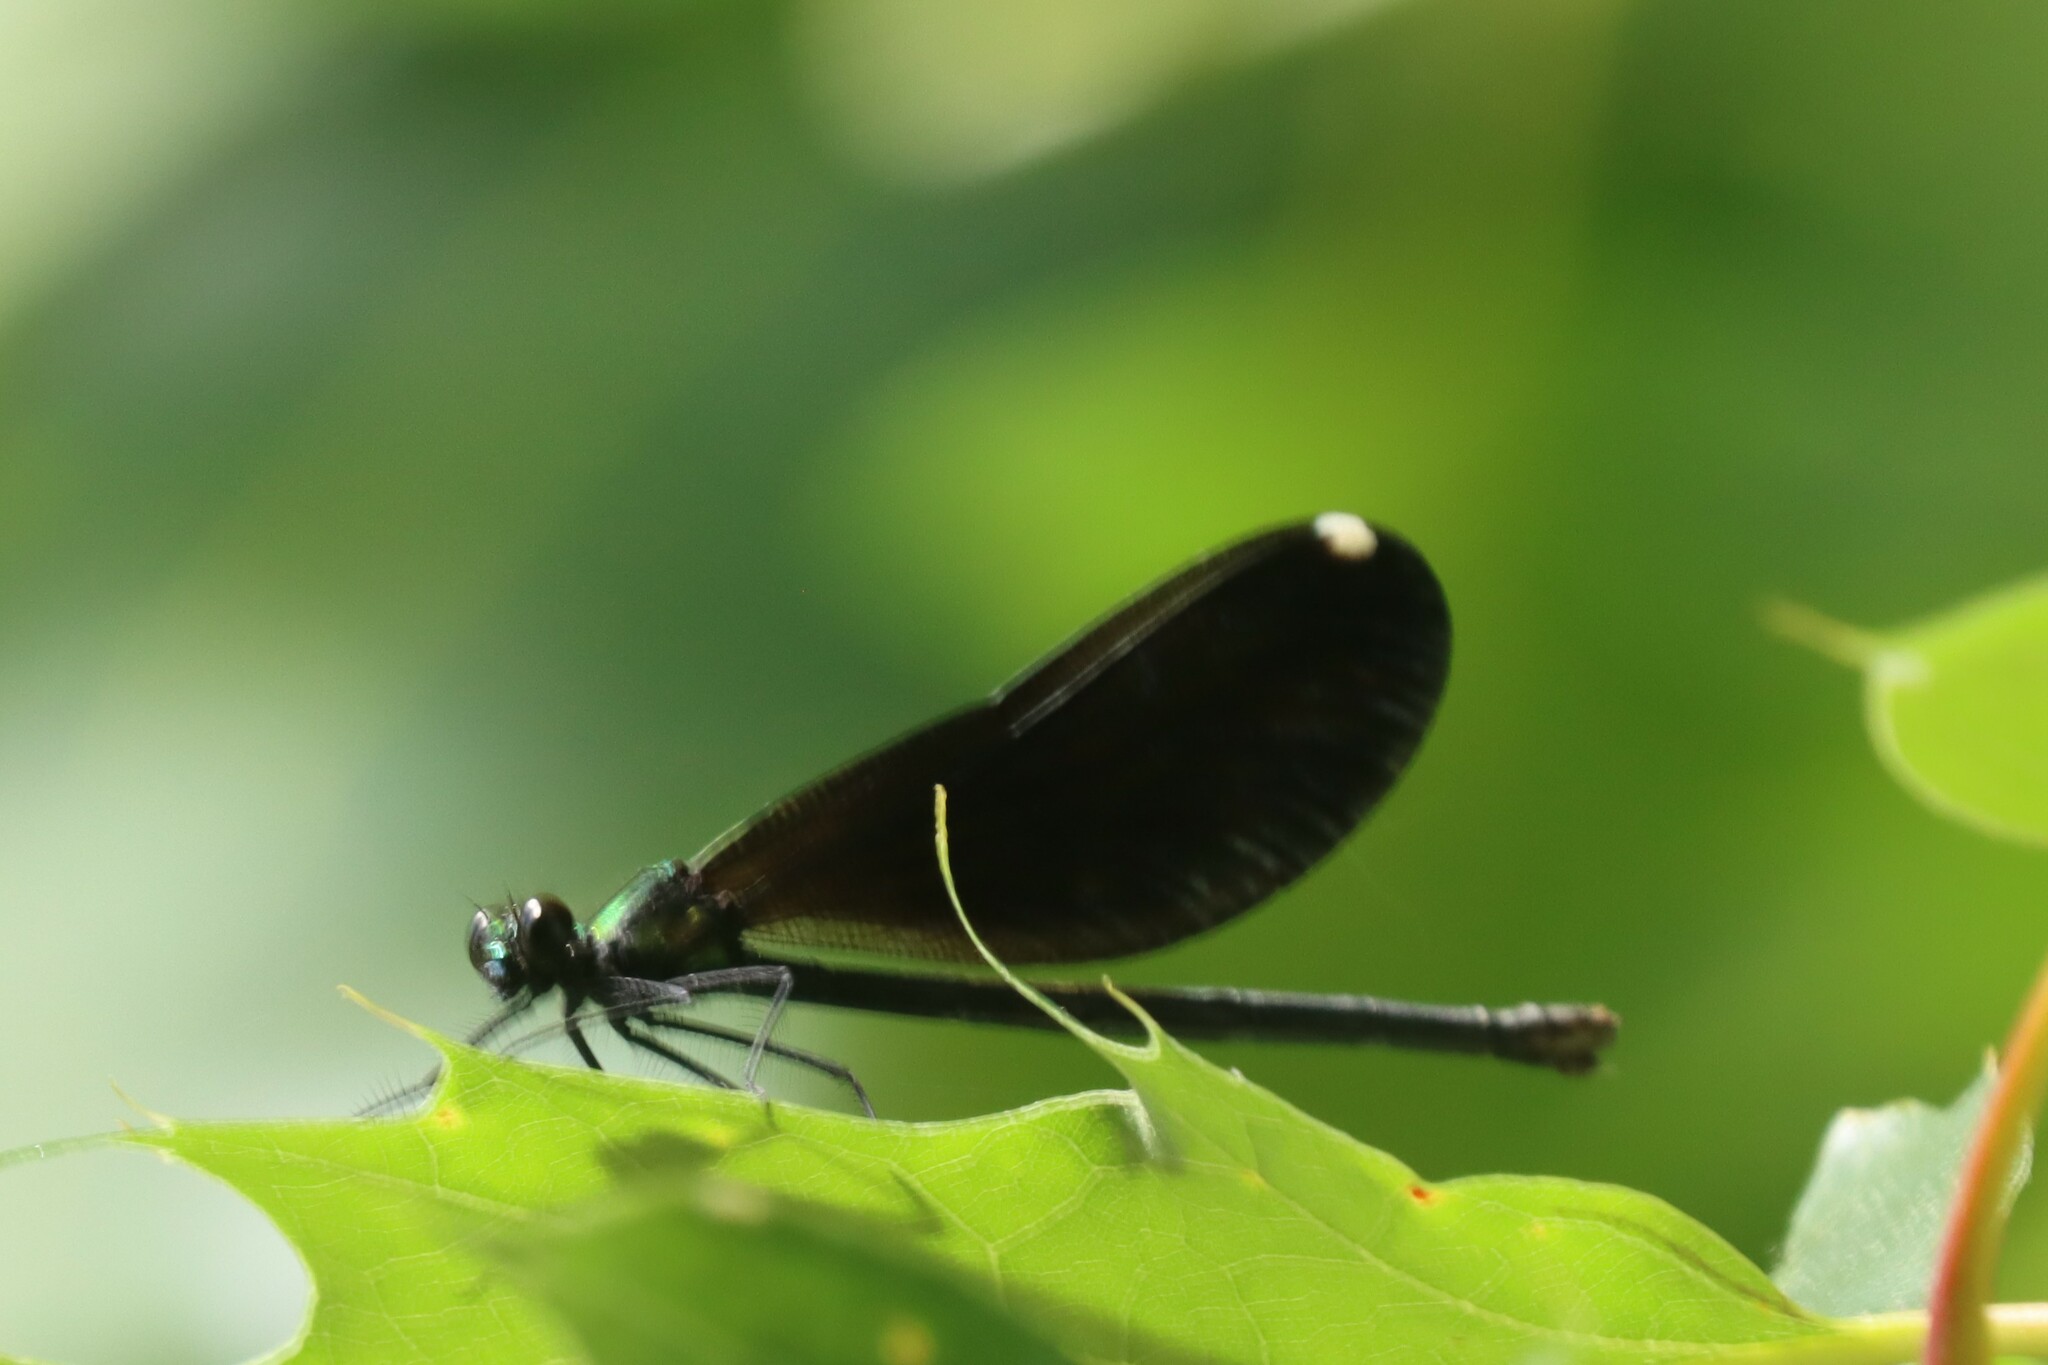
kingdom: Animalia
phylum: Arthropoda
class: Insecta
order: Odonata
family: Calopterygidae
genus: Calopteryx
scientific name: Calopteryx maculata
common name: Ebony jewelwing
